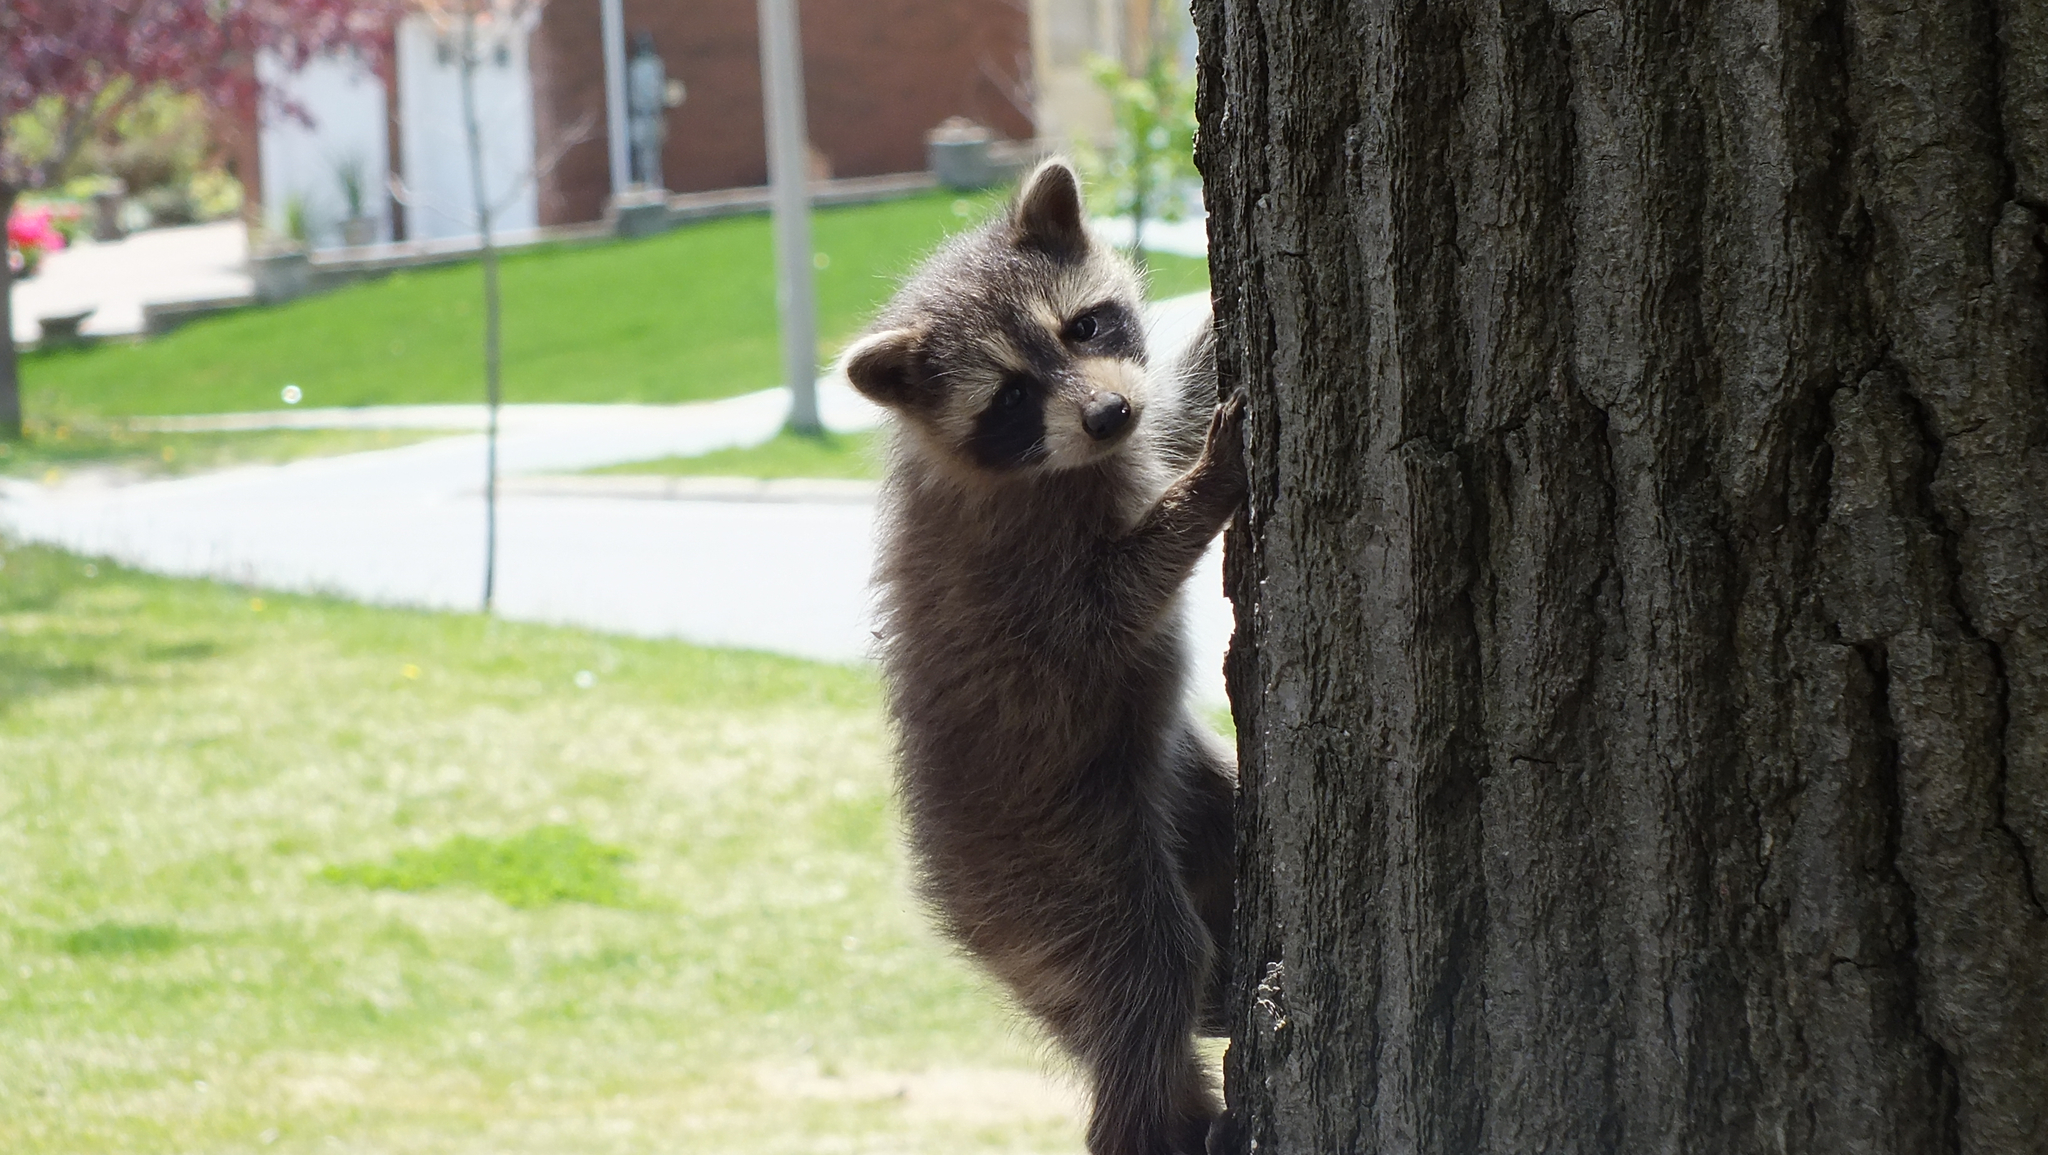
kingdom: Animalia
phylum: Chordata
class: Mammalia
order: Carnivora
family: Procyonidae
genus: Procyon
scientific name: Procyon lotor
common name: Raccoon
